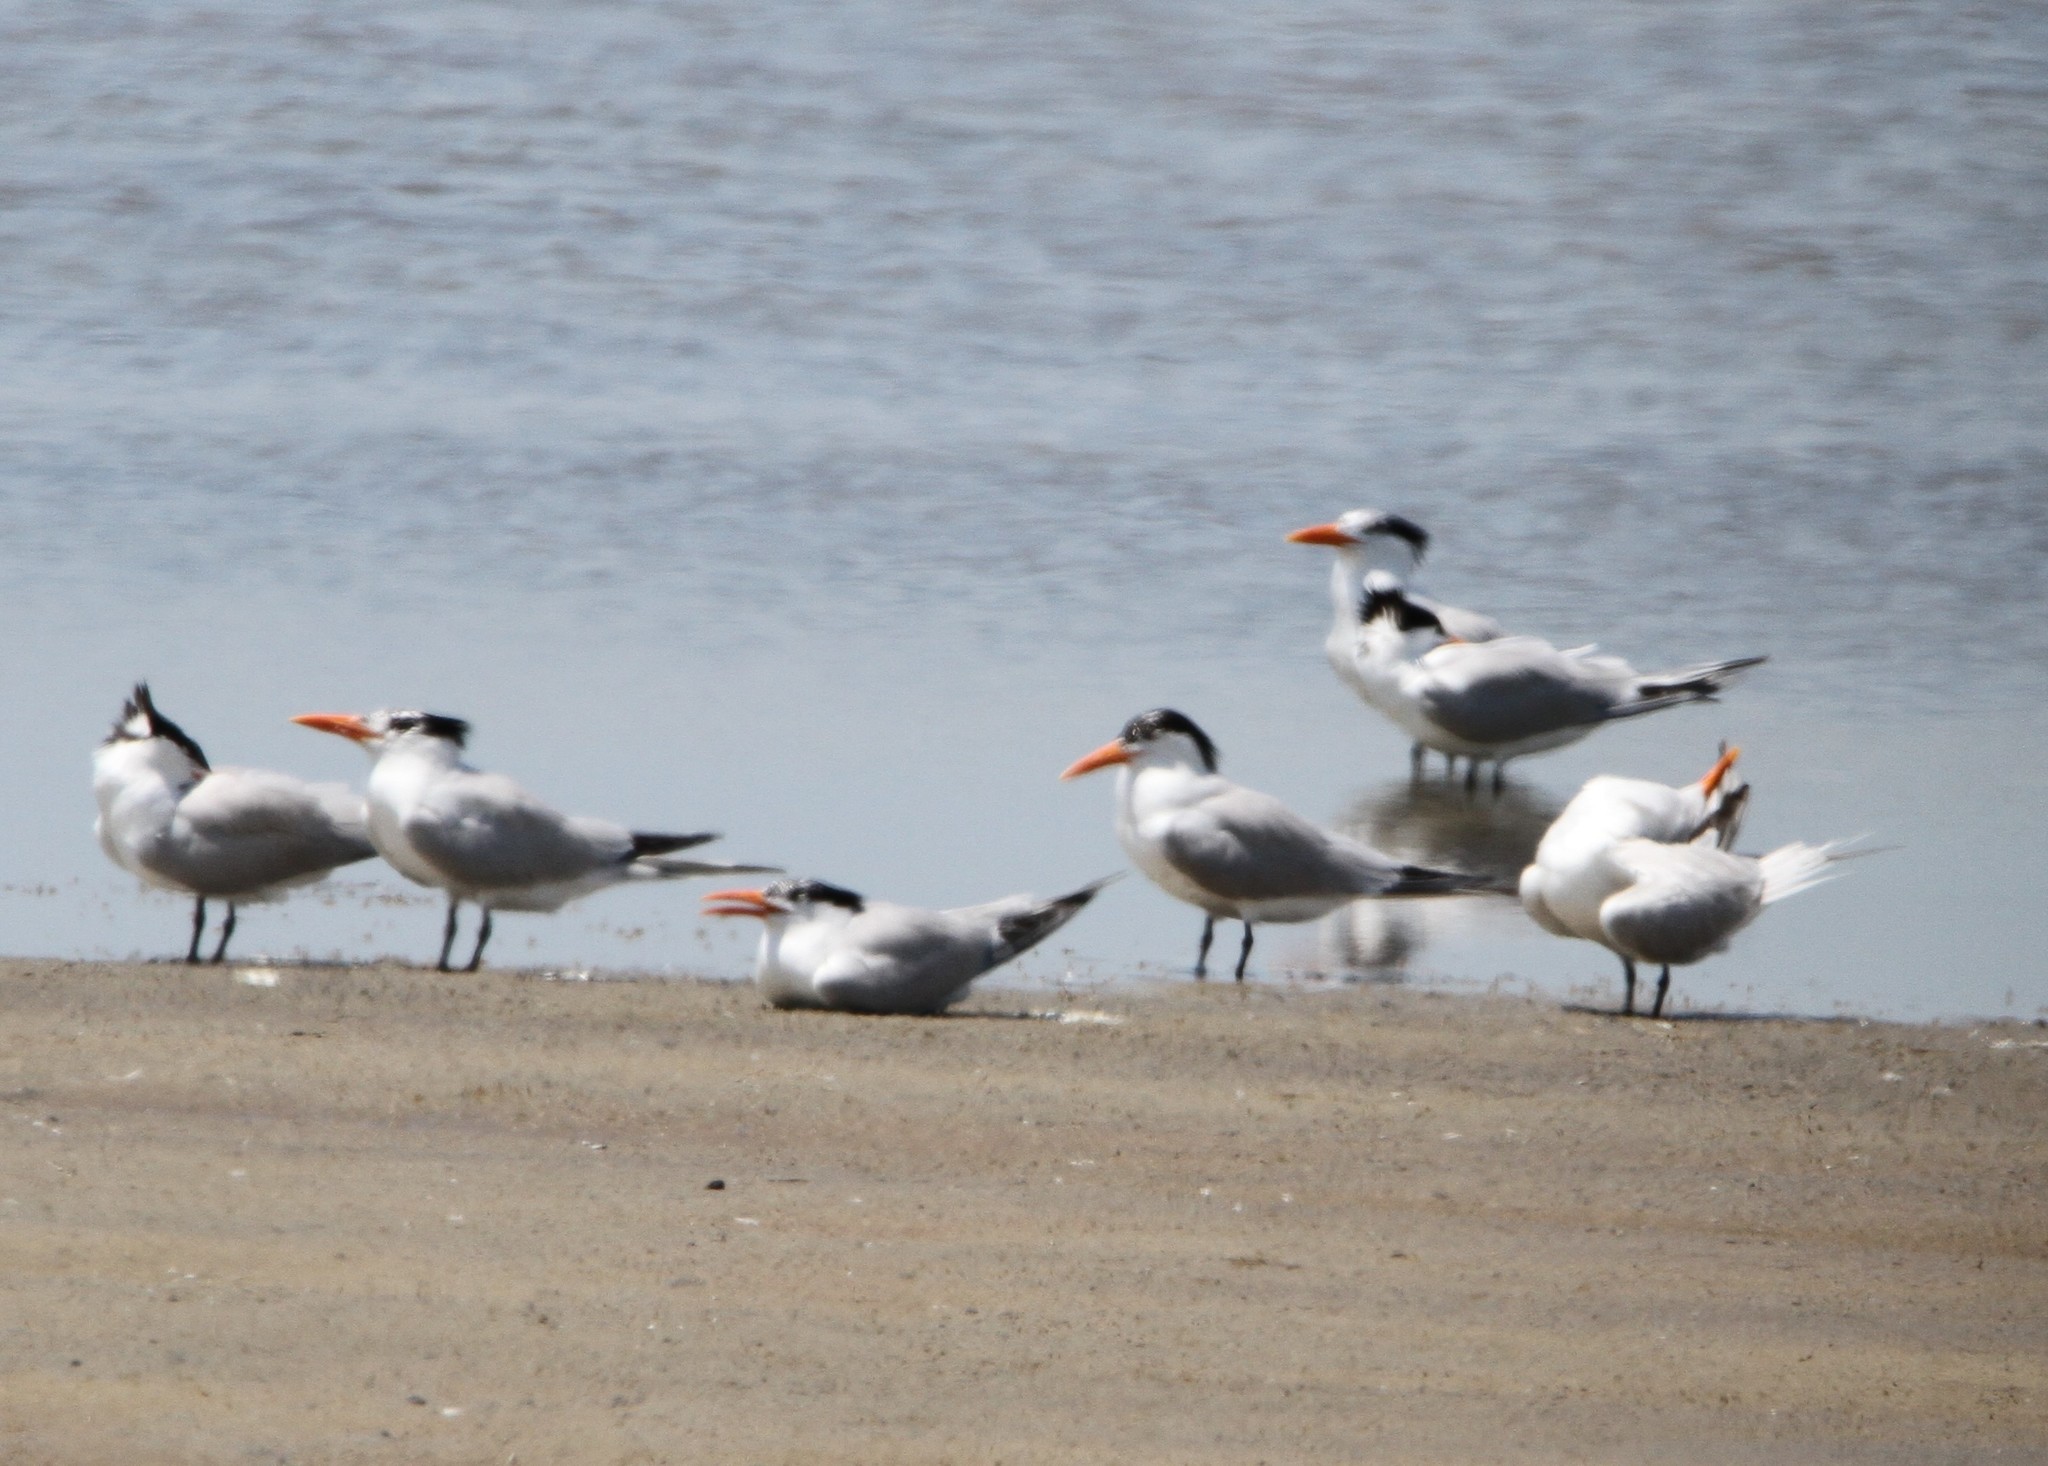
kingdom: Animalia
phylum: Chordata
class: Aves
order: Charadriiformes
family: Laridae
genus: Thalasseus
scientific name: Thalasseus maximus
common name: Royal tern
